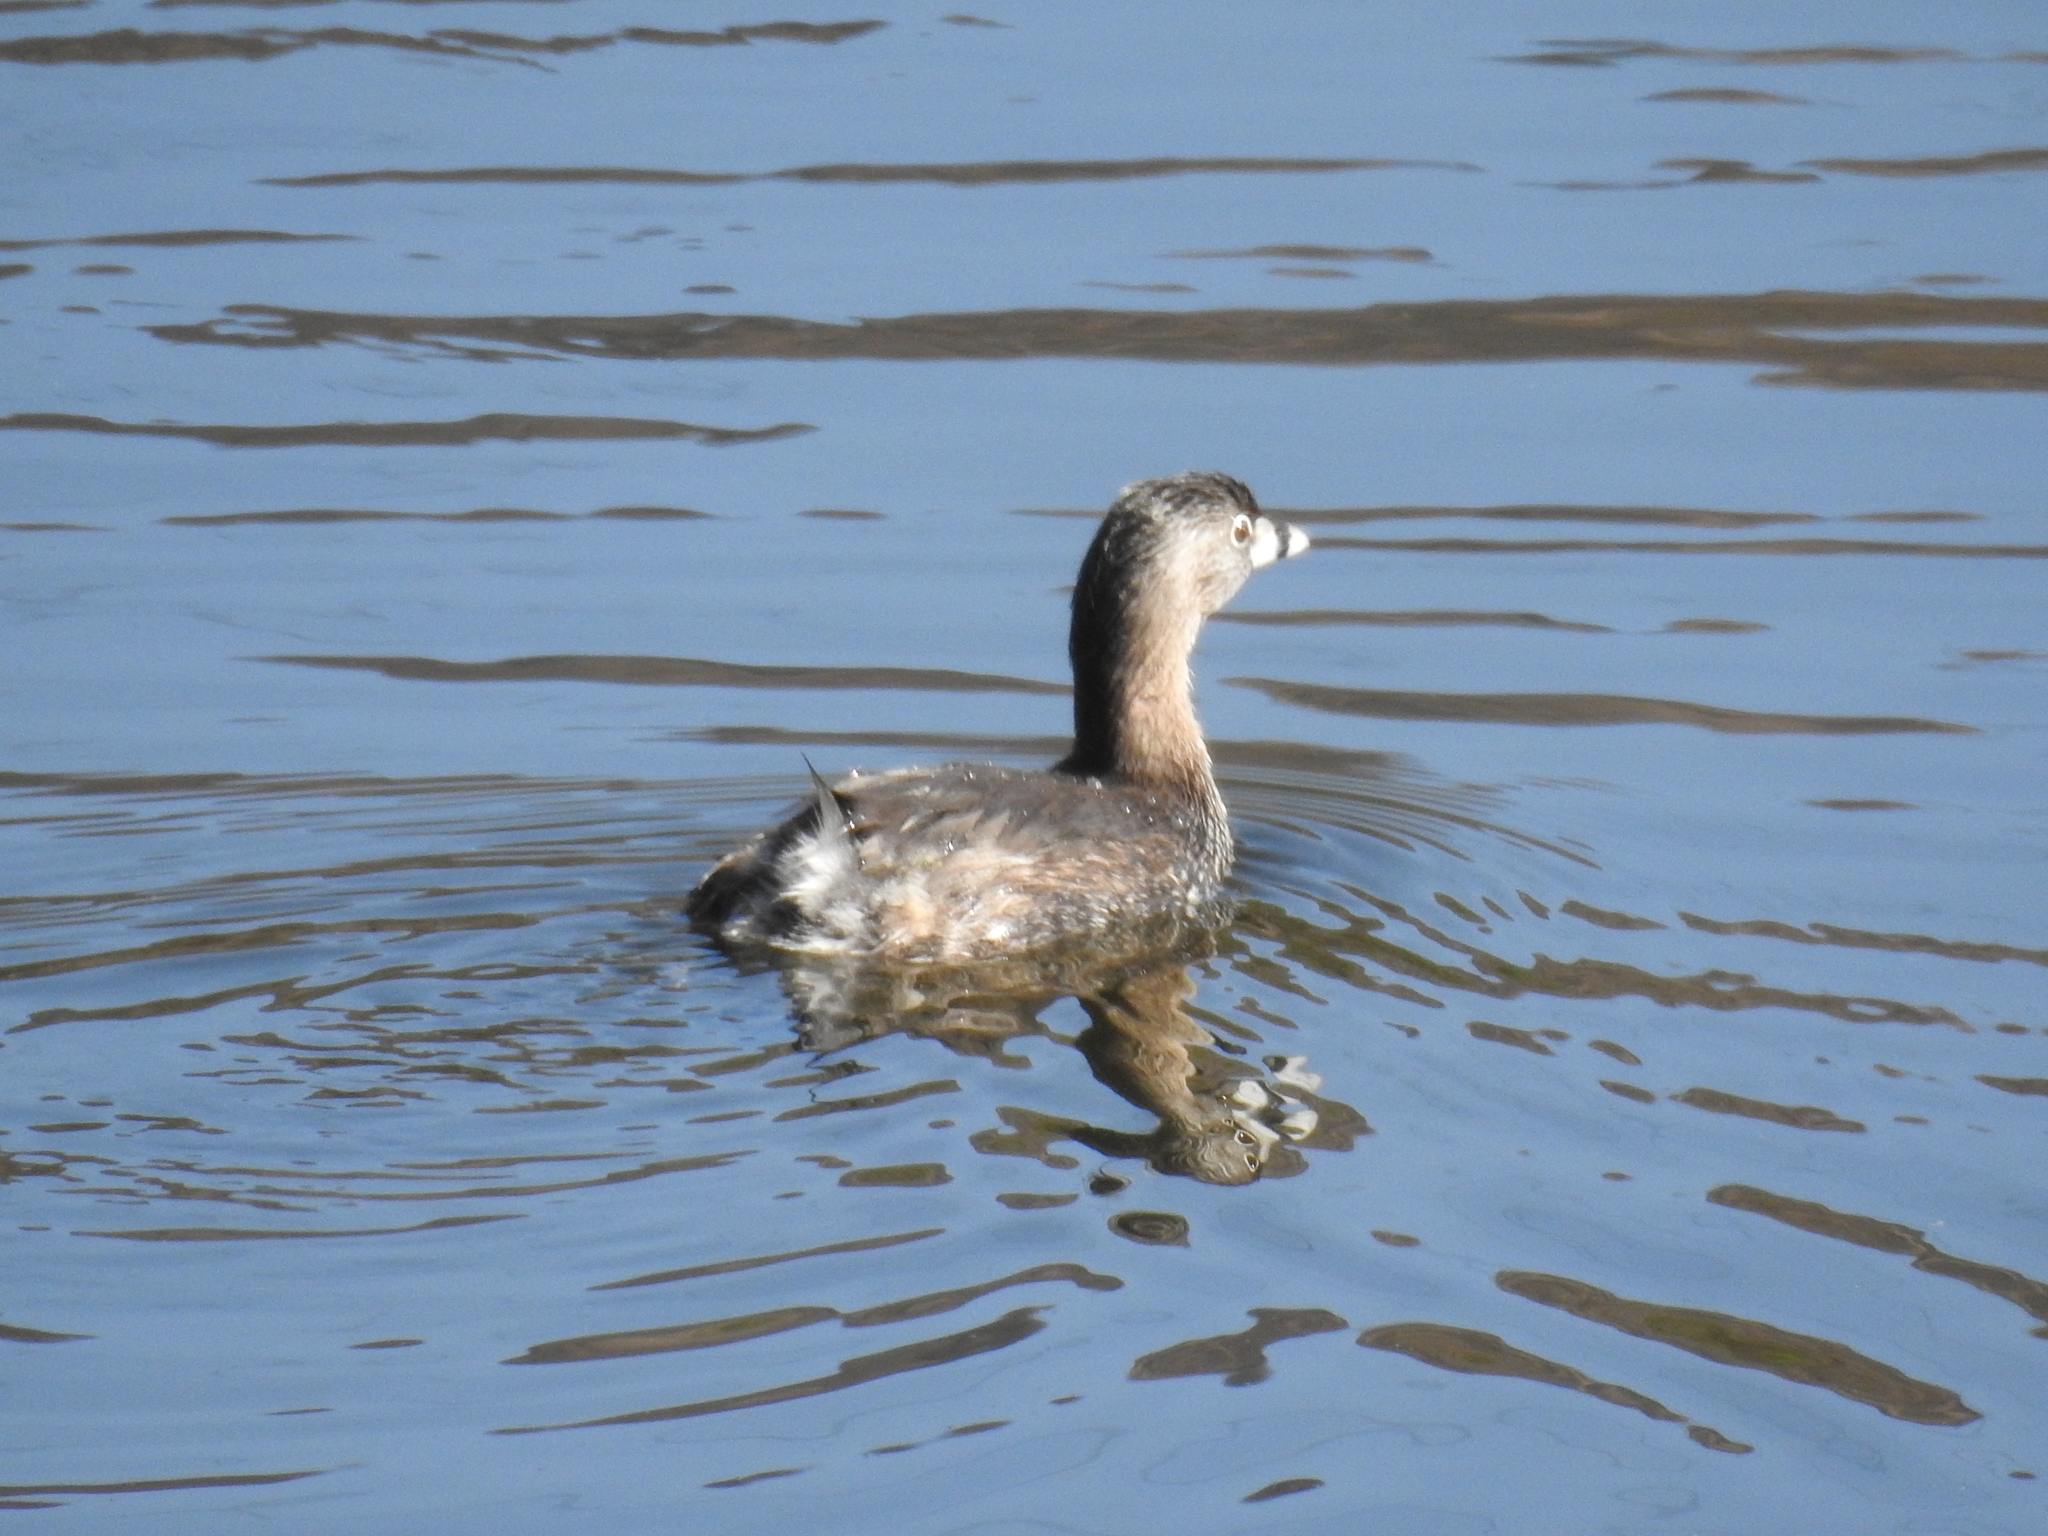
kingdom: Animalia
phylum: Chordata
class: Aves
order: Podicipediformes
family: Podicipedidae
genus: Podilymbus
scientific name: Podilymbus podiceps
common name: Pied-billed grebe
